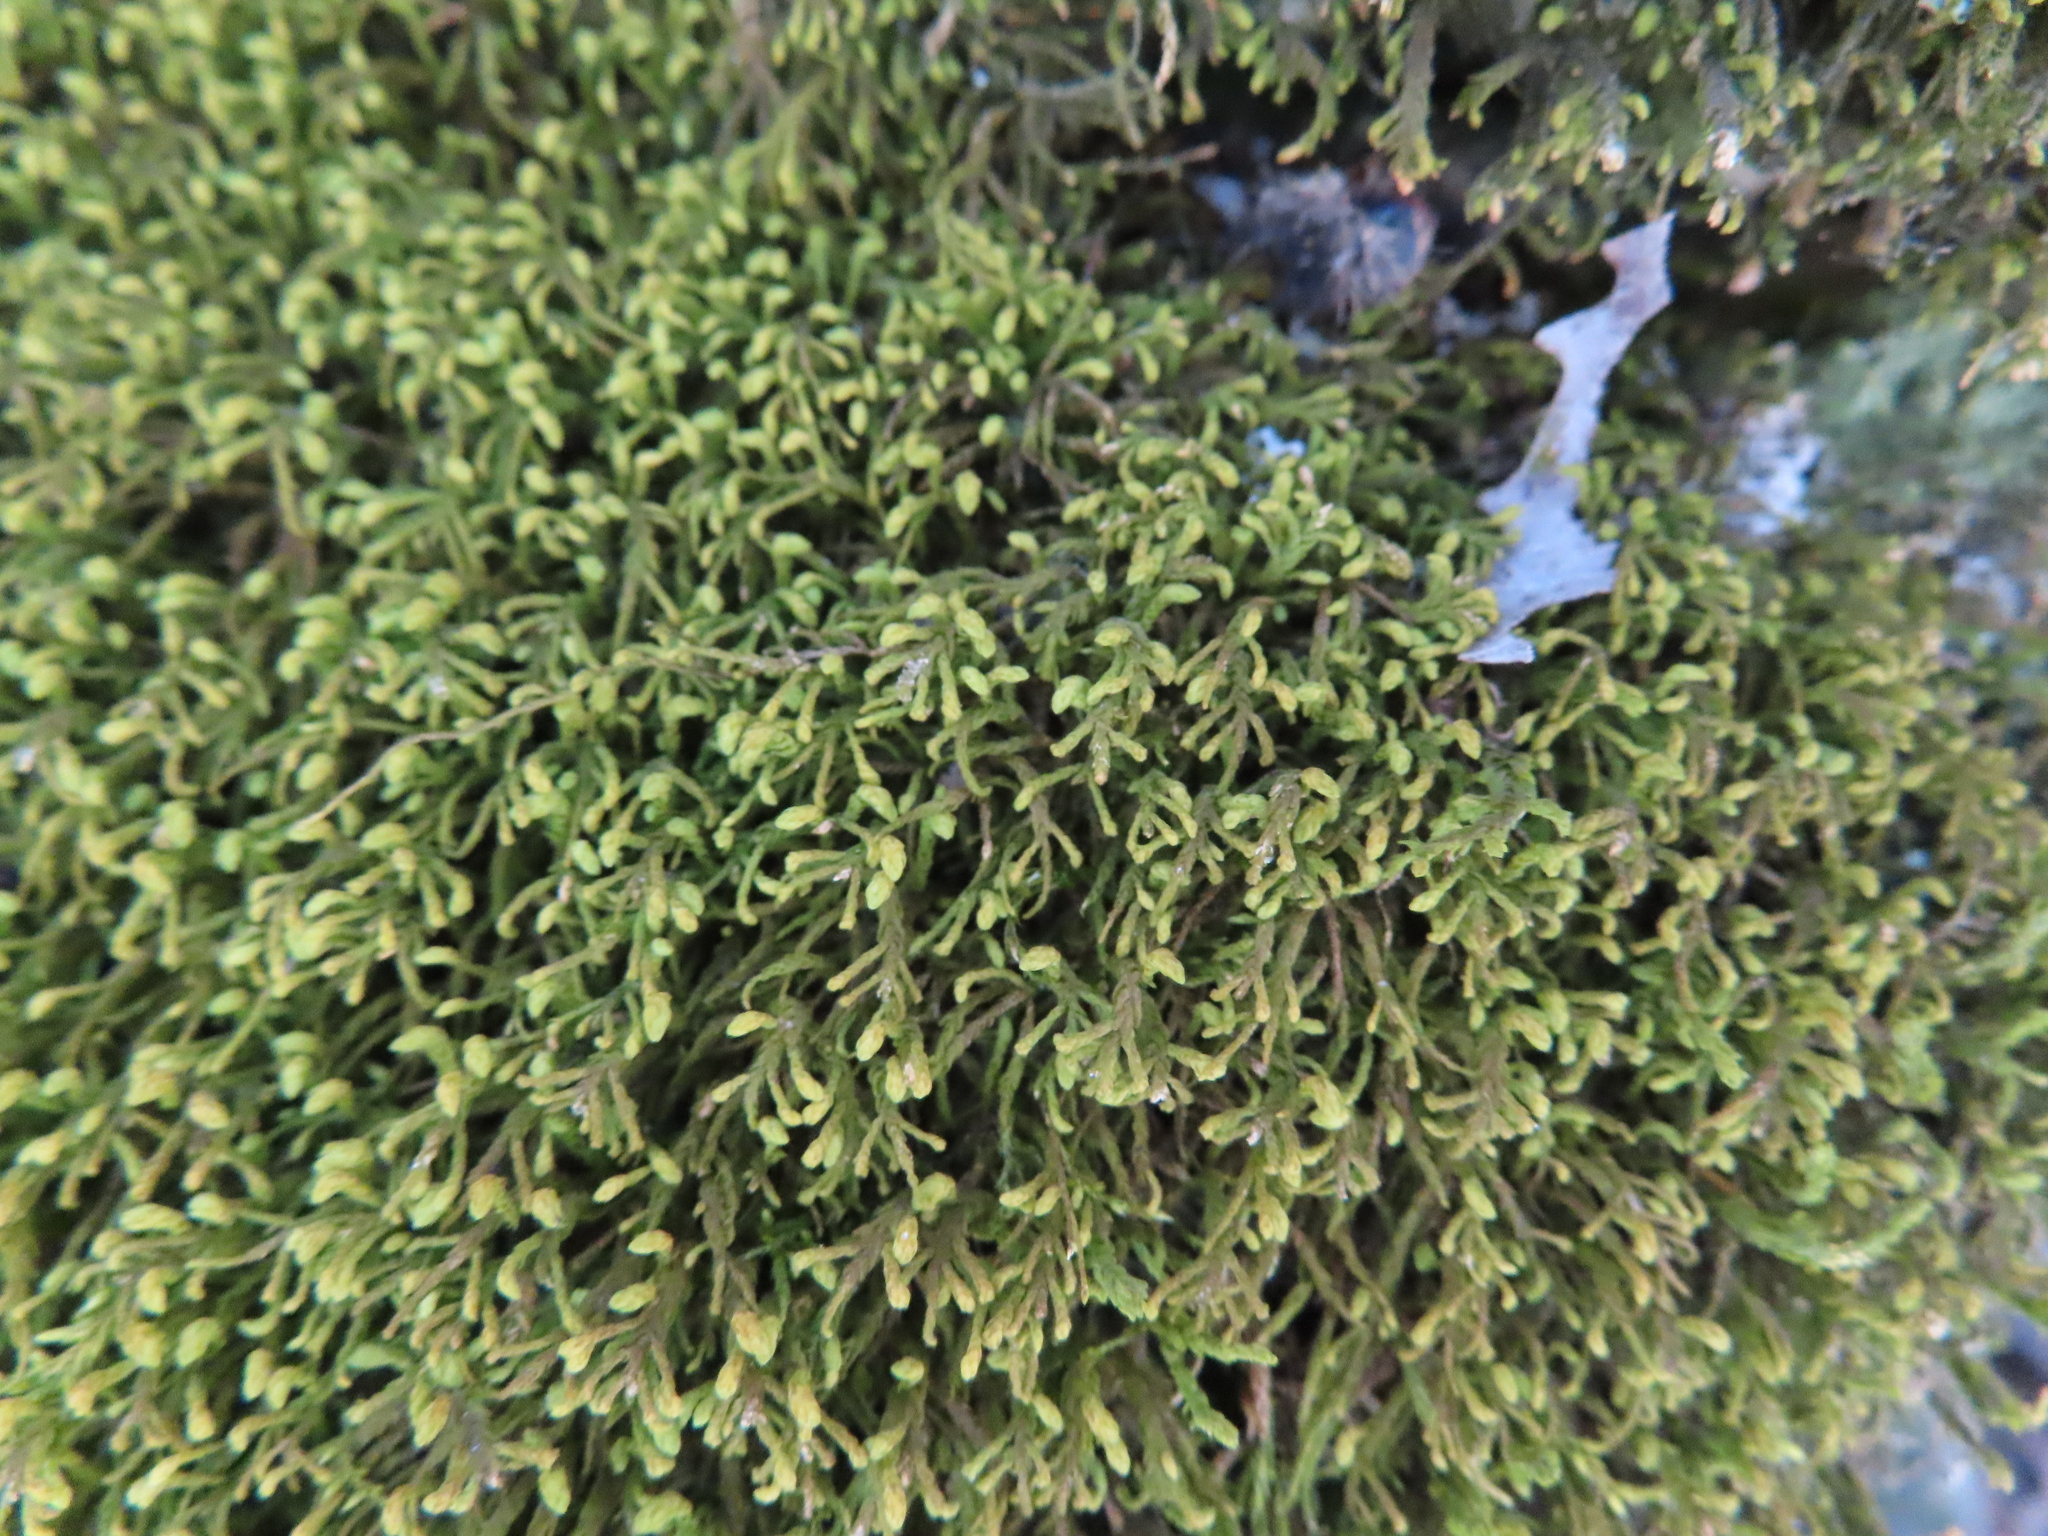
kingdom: Plantae
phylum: Bryophyta
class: Bryopsida
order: Hypnales
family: Neckeraceae
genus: Pseudanomodon
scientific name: Pseudanomodon attenuatus
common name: Tree-skirt moss
